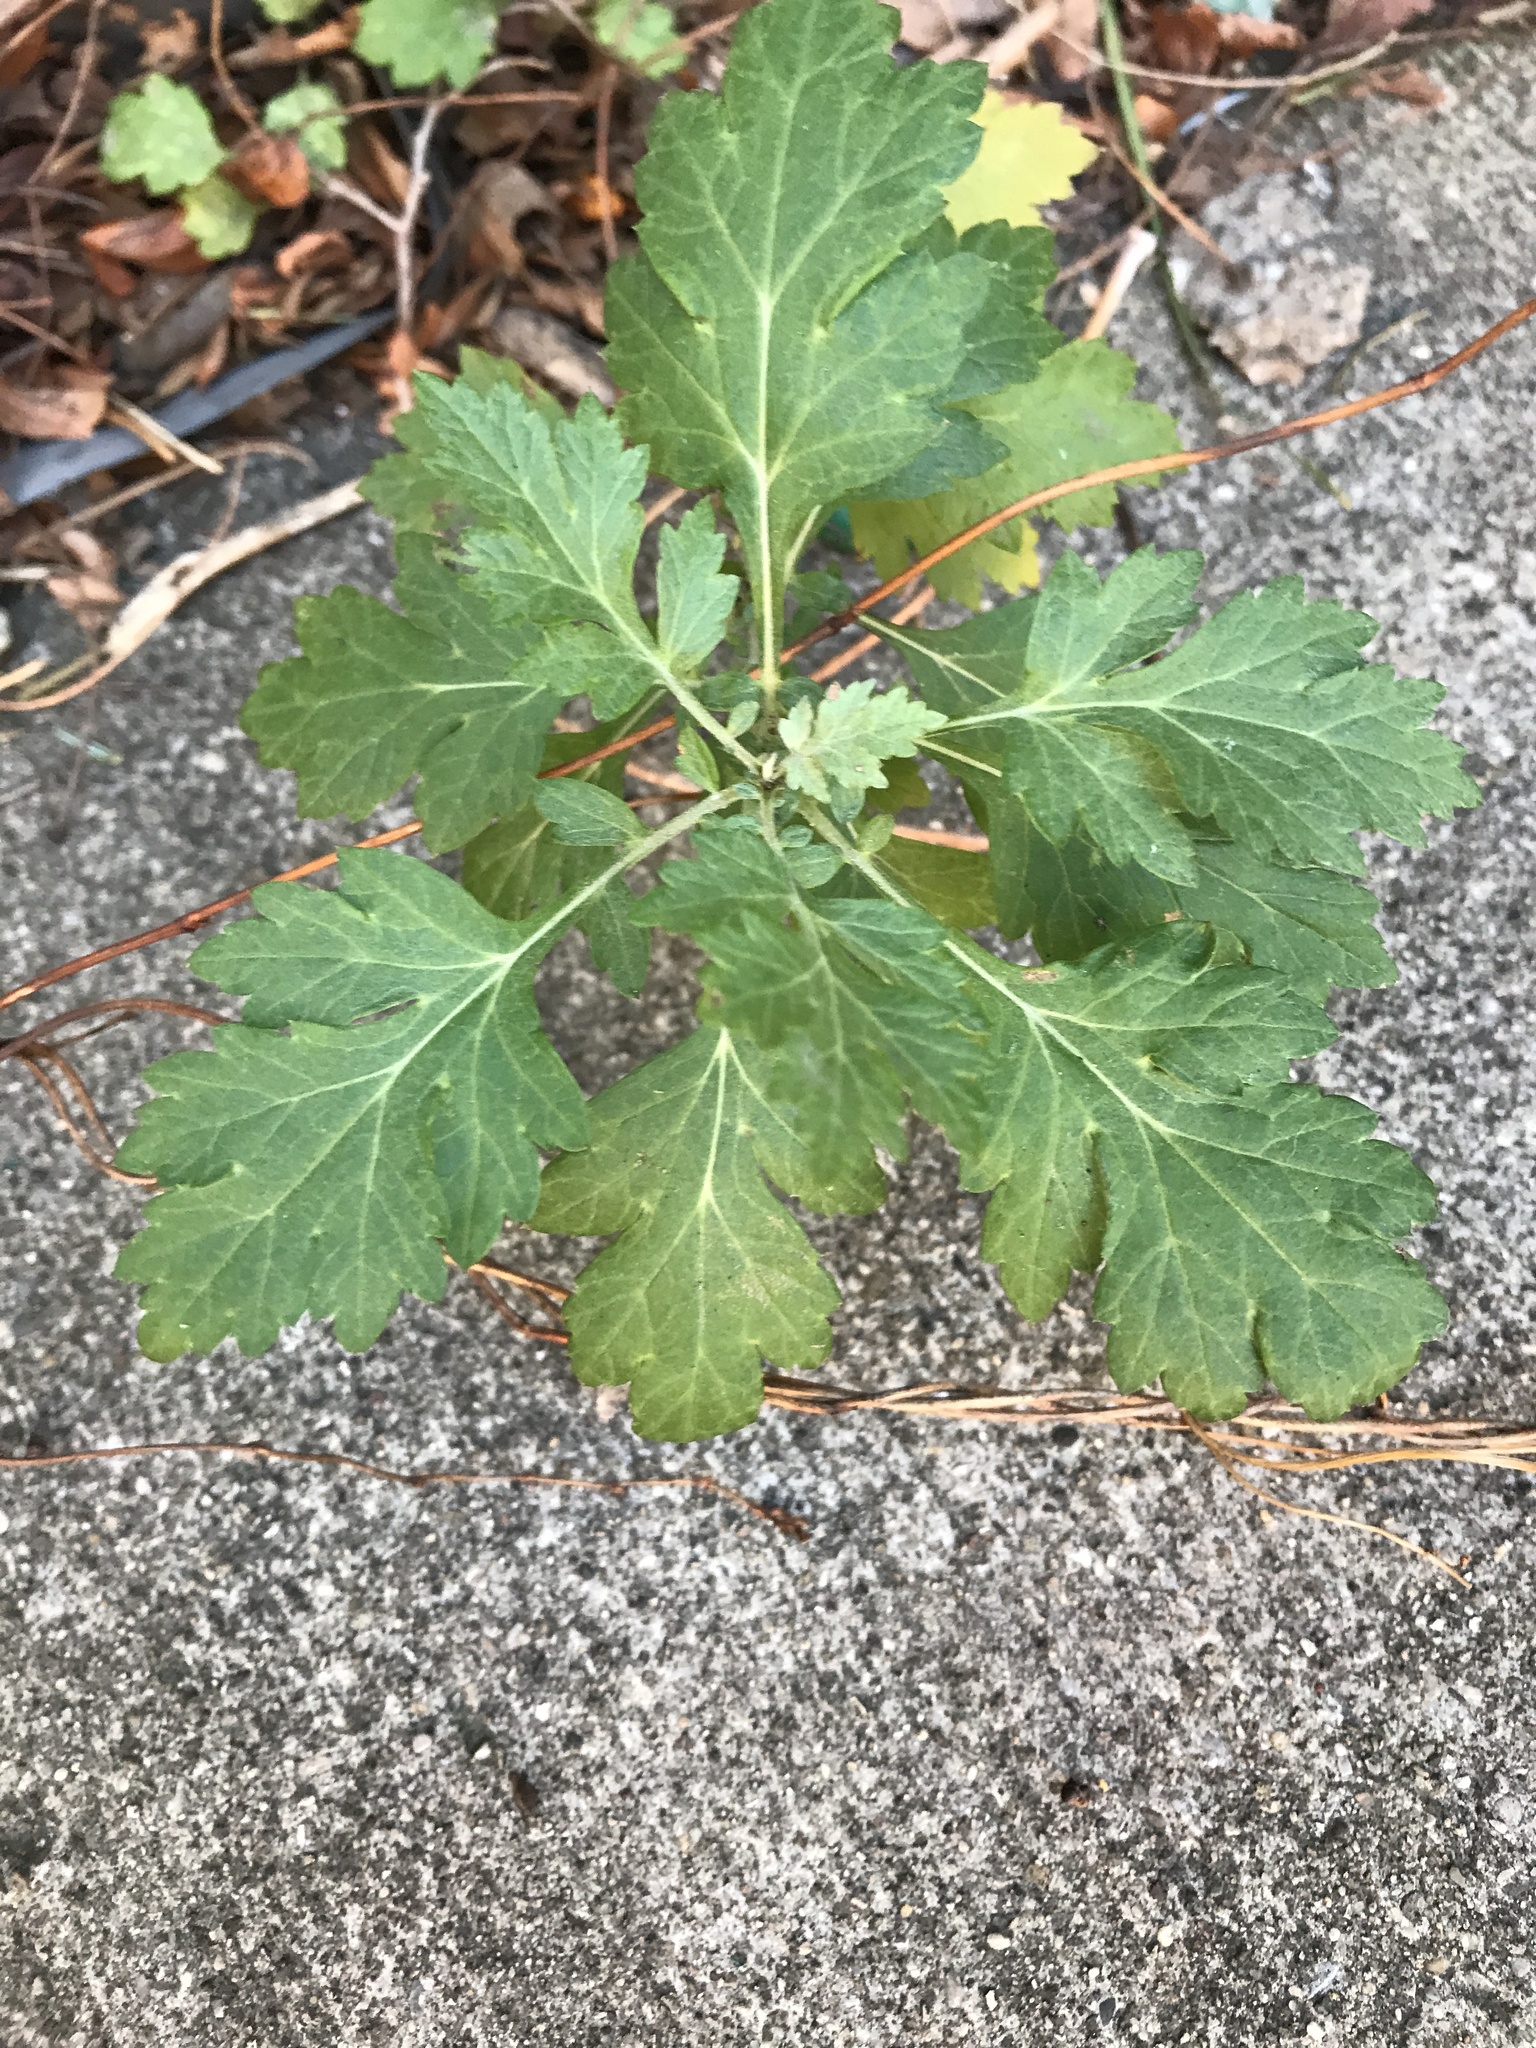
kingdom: Plantae
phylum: Tracheophyta
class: Magnoliopsida
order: Asterales
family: Asteraceae
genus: Artemisia
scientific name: Artemisia vulgaris
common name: Mugwort
